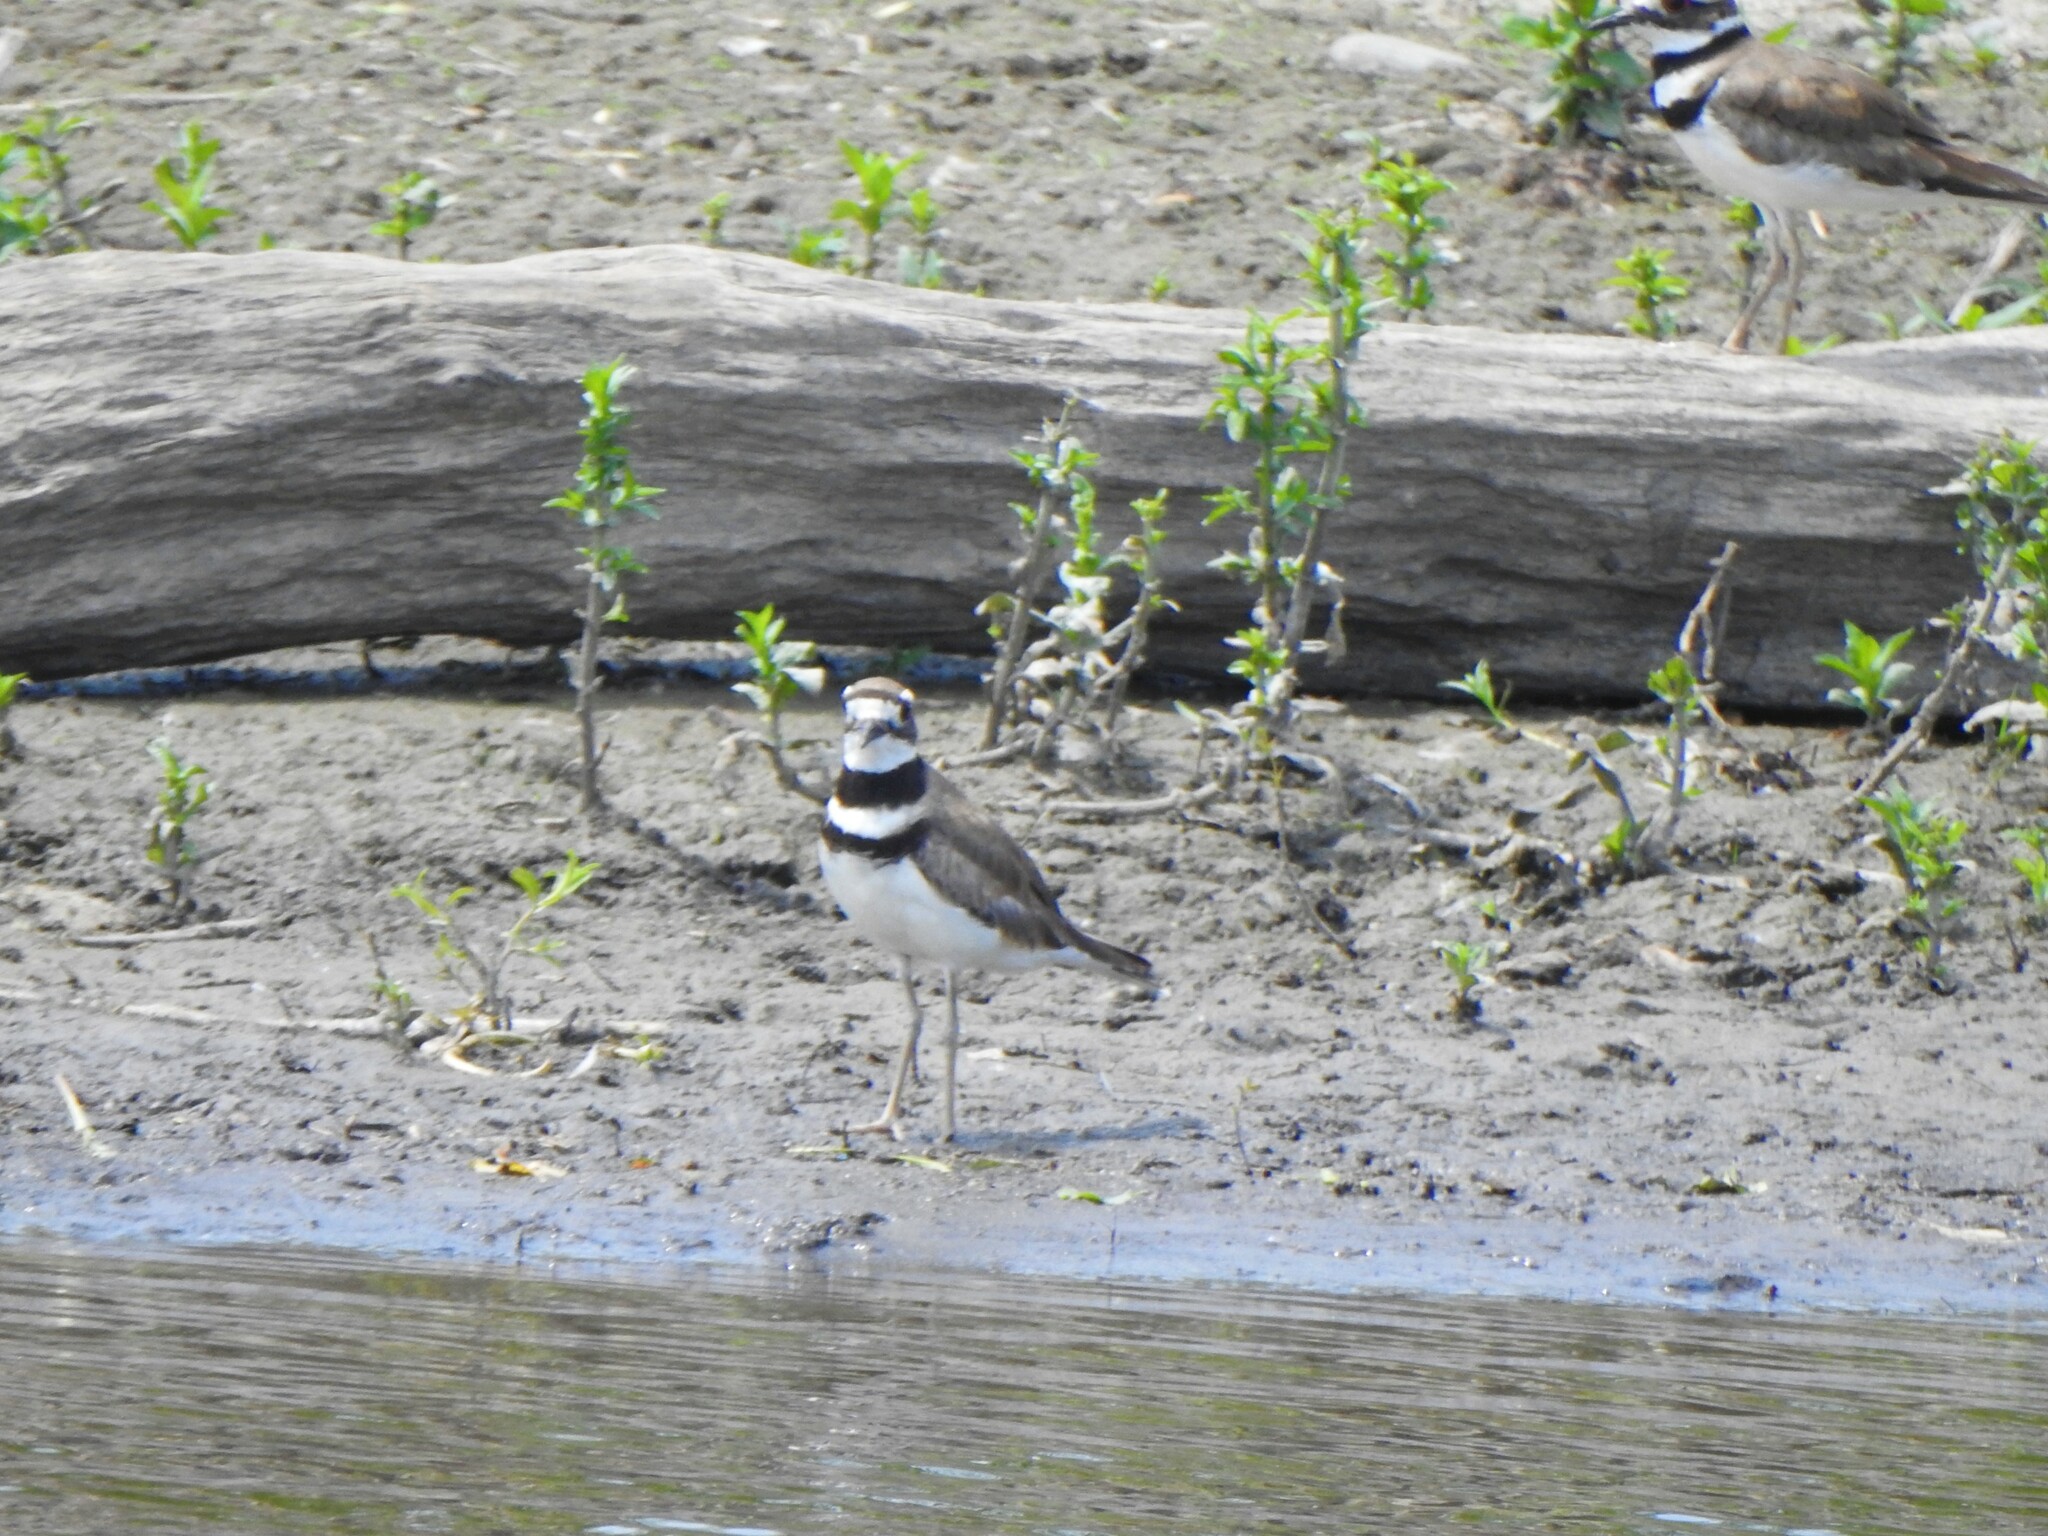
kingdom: Animalia
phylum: Chordata
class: Aves
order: Charadriiformes
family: Charadriidae
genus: Charadrius
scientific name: Charadrius vociferus
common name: Killdeer
